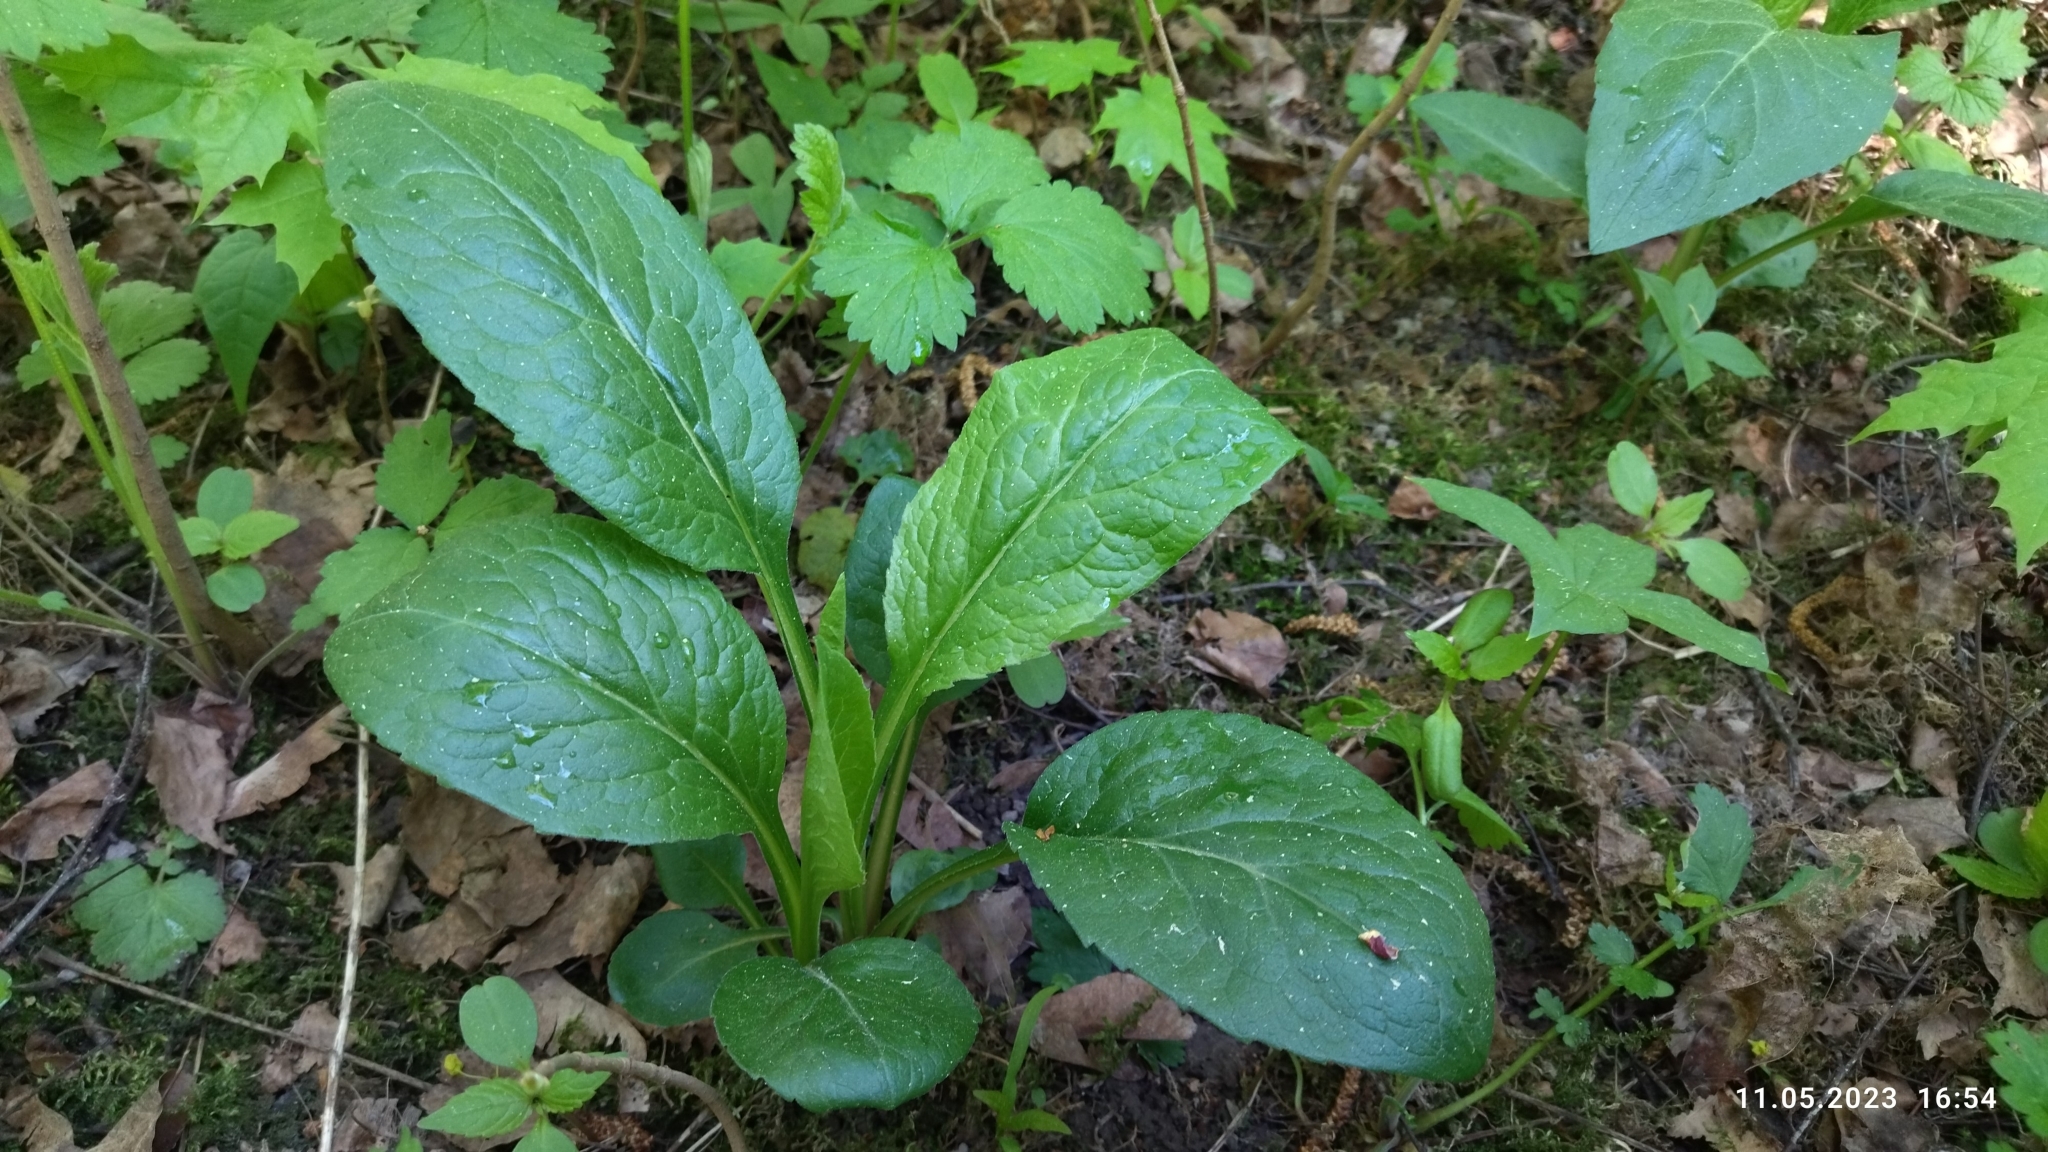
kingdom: Plantae
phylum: Tracheophyta
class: Magnoliopsida
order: Asterales
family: Asteraceae
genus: Solidago
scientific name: Solidago virgaurea
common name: Goldenrod
